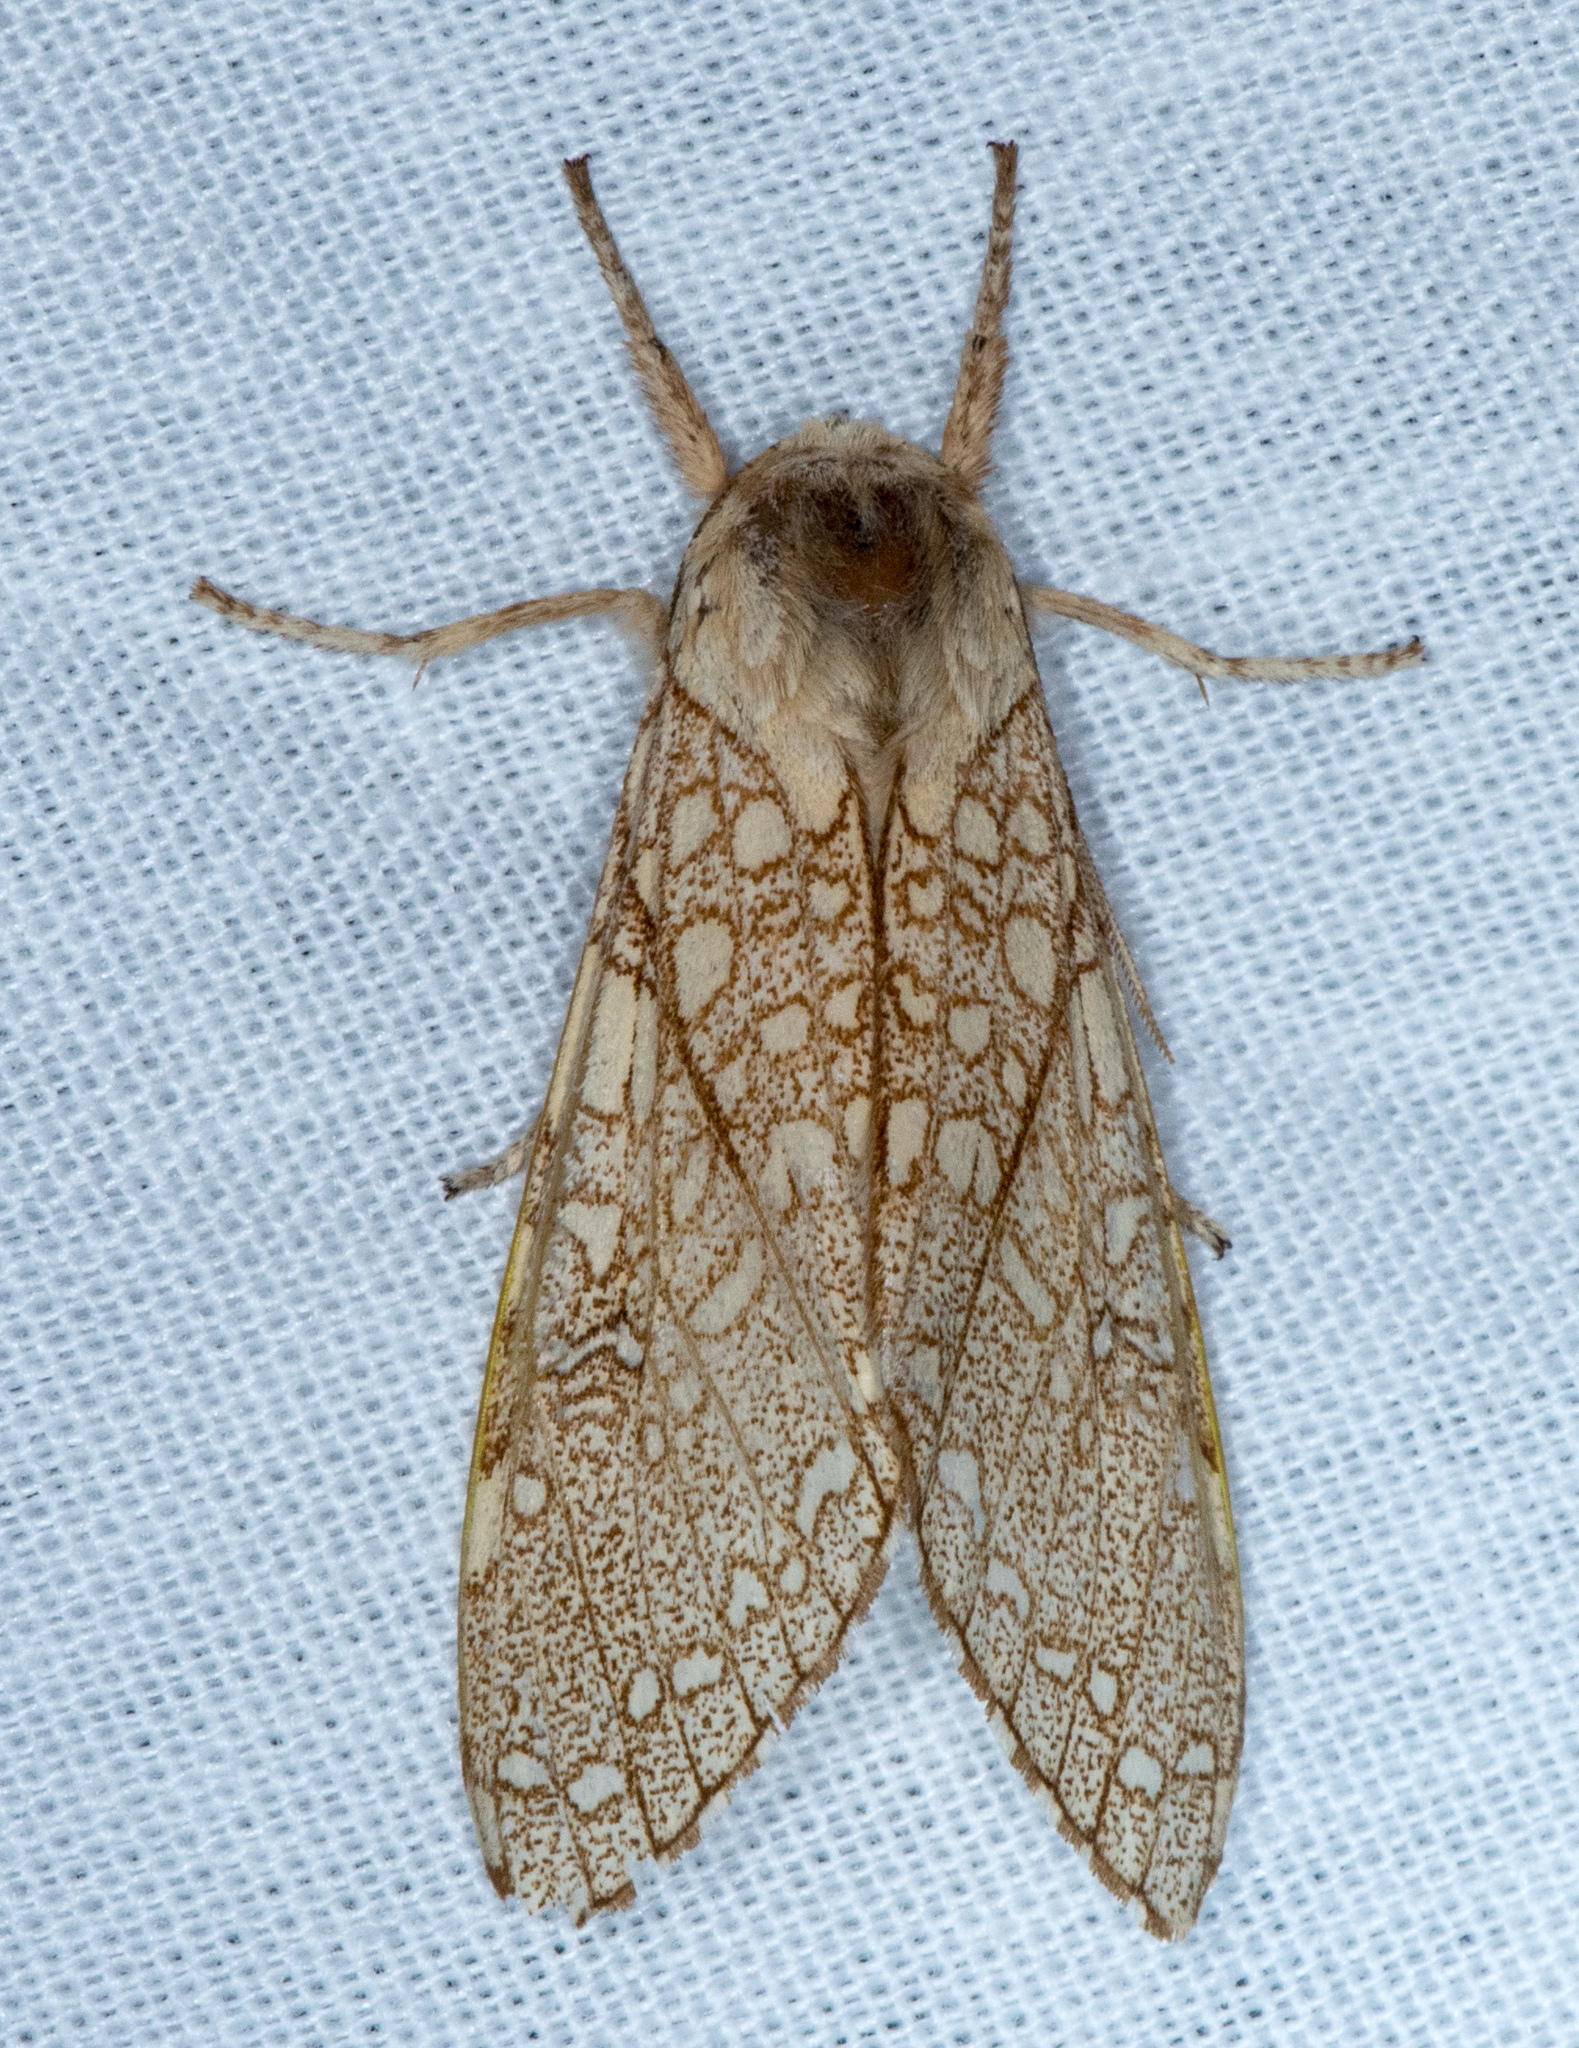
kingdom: Animalia
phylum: Arthropoda
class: Insecta
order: Lepidoptera
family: Erebidae
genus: Lophocampa
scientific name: Lophocampa mixta
